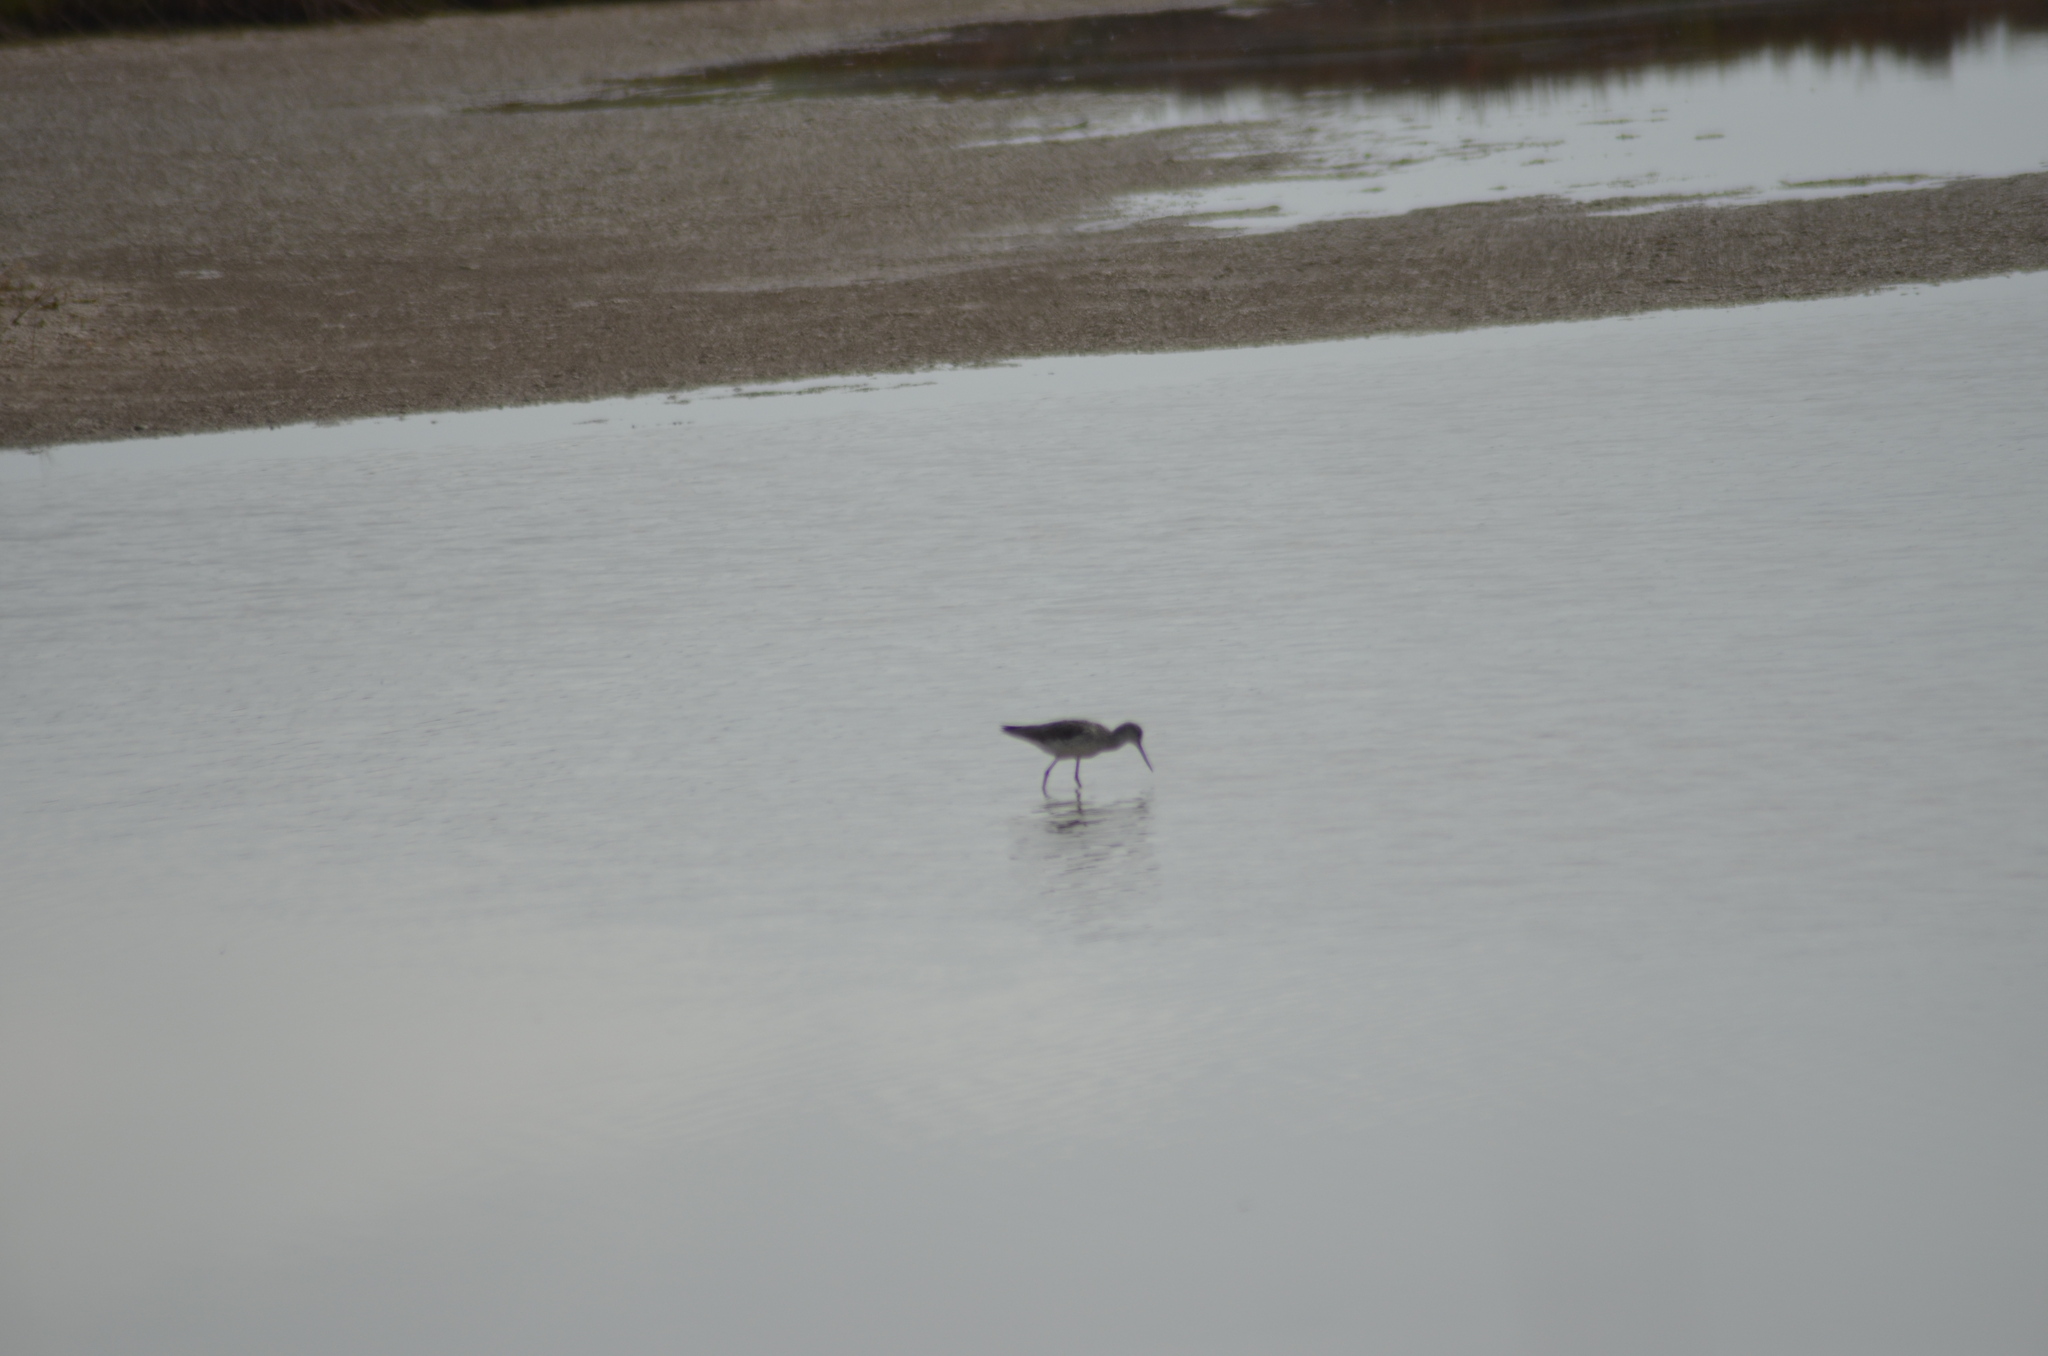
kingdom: Animalia
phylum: Chordata
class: Aves
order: Charadriiformes
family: Scolopacidae
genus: Tringa
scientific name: Tringa totanus
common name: Common redshank
